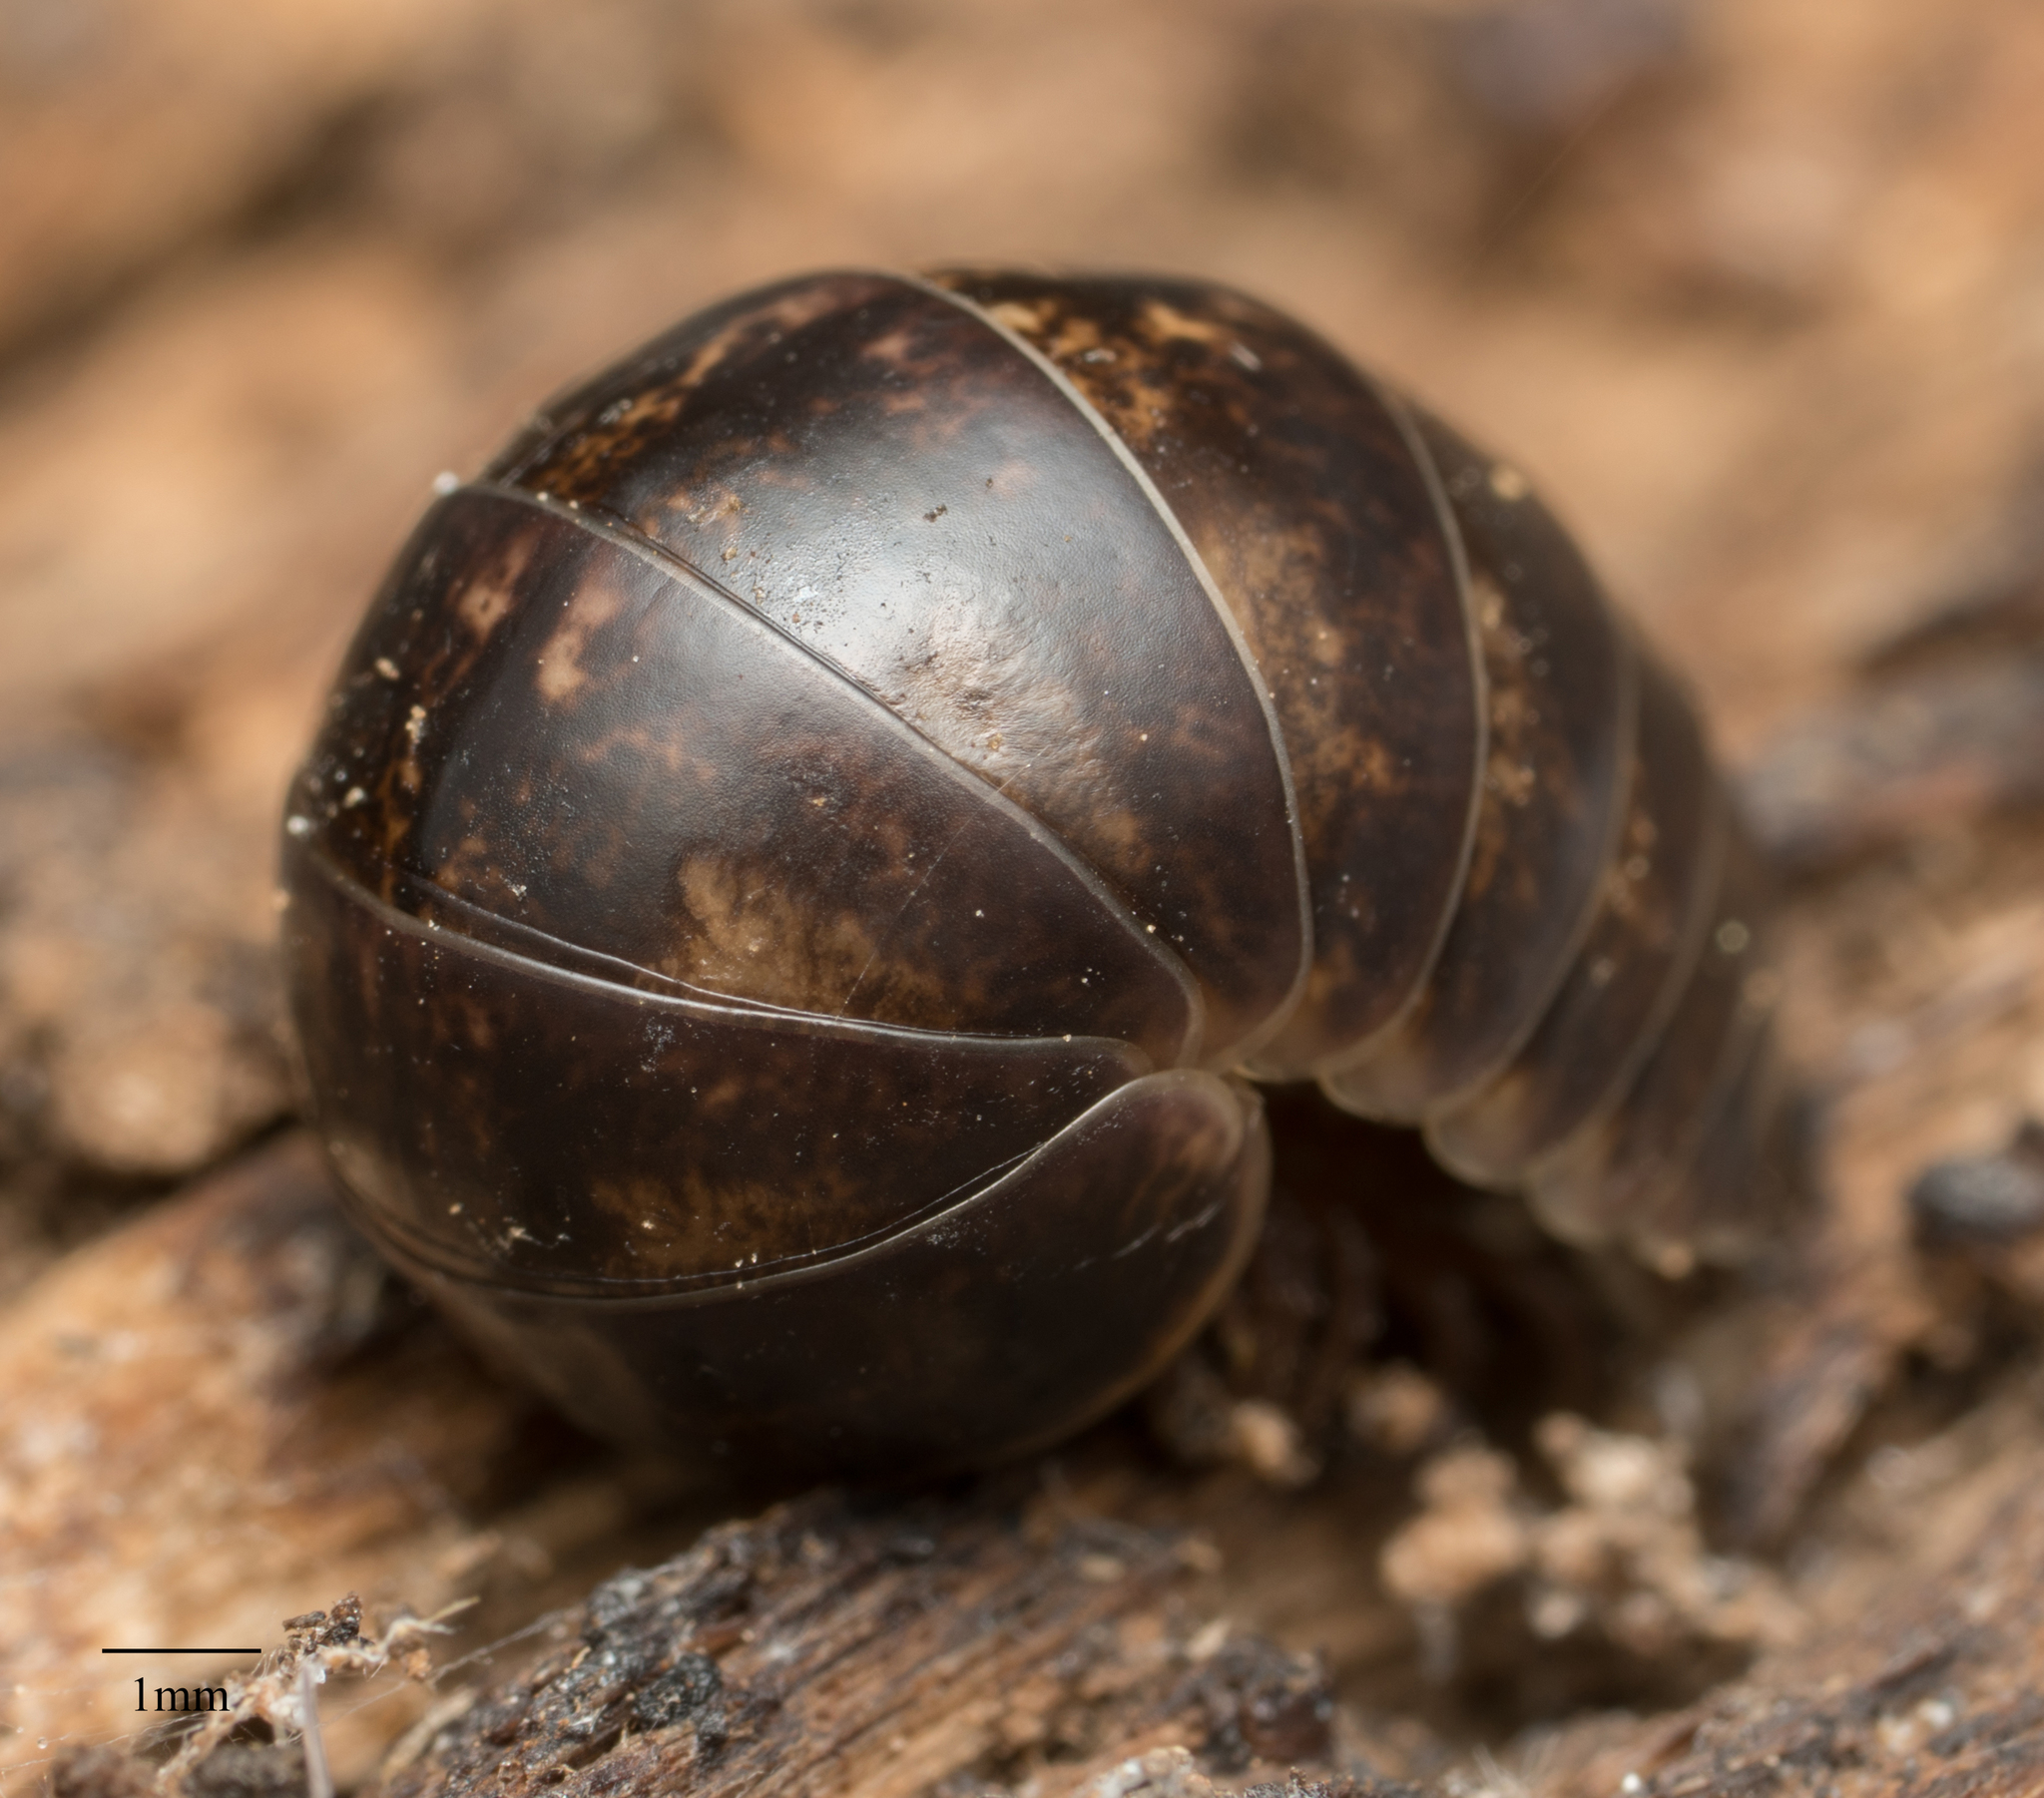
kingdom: Animalia
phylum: Arthropoda
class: Diplopoda
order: Glomerida
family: Glomeridae
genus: Glomeris
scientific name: Glomeris klugii
